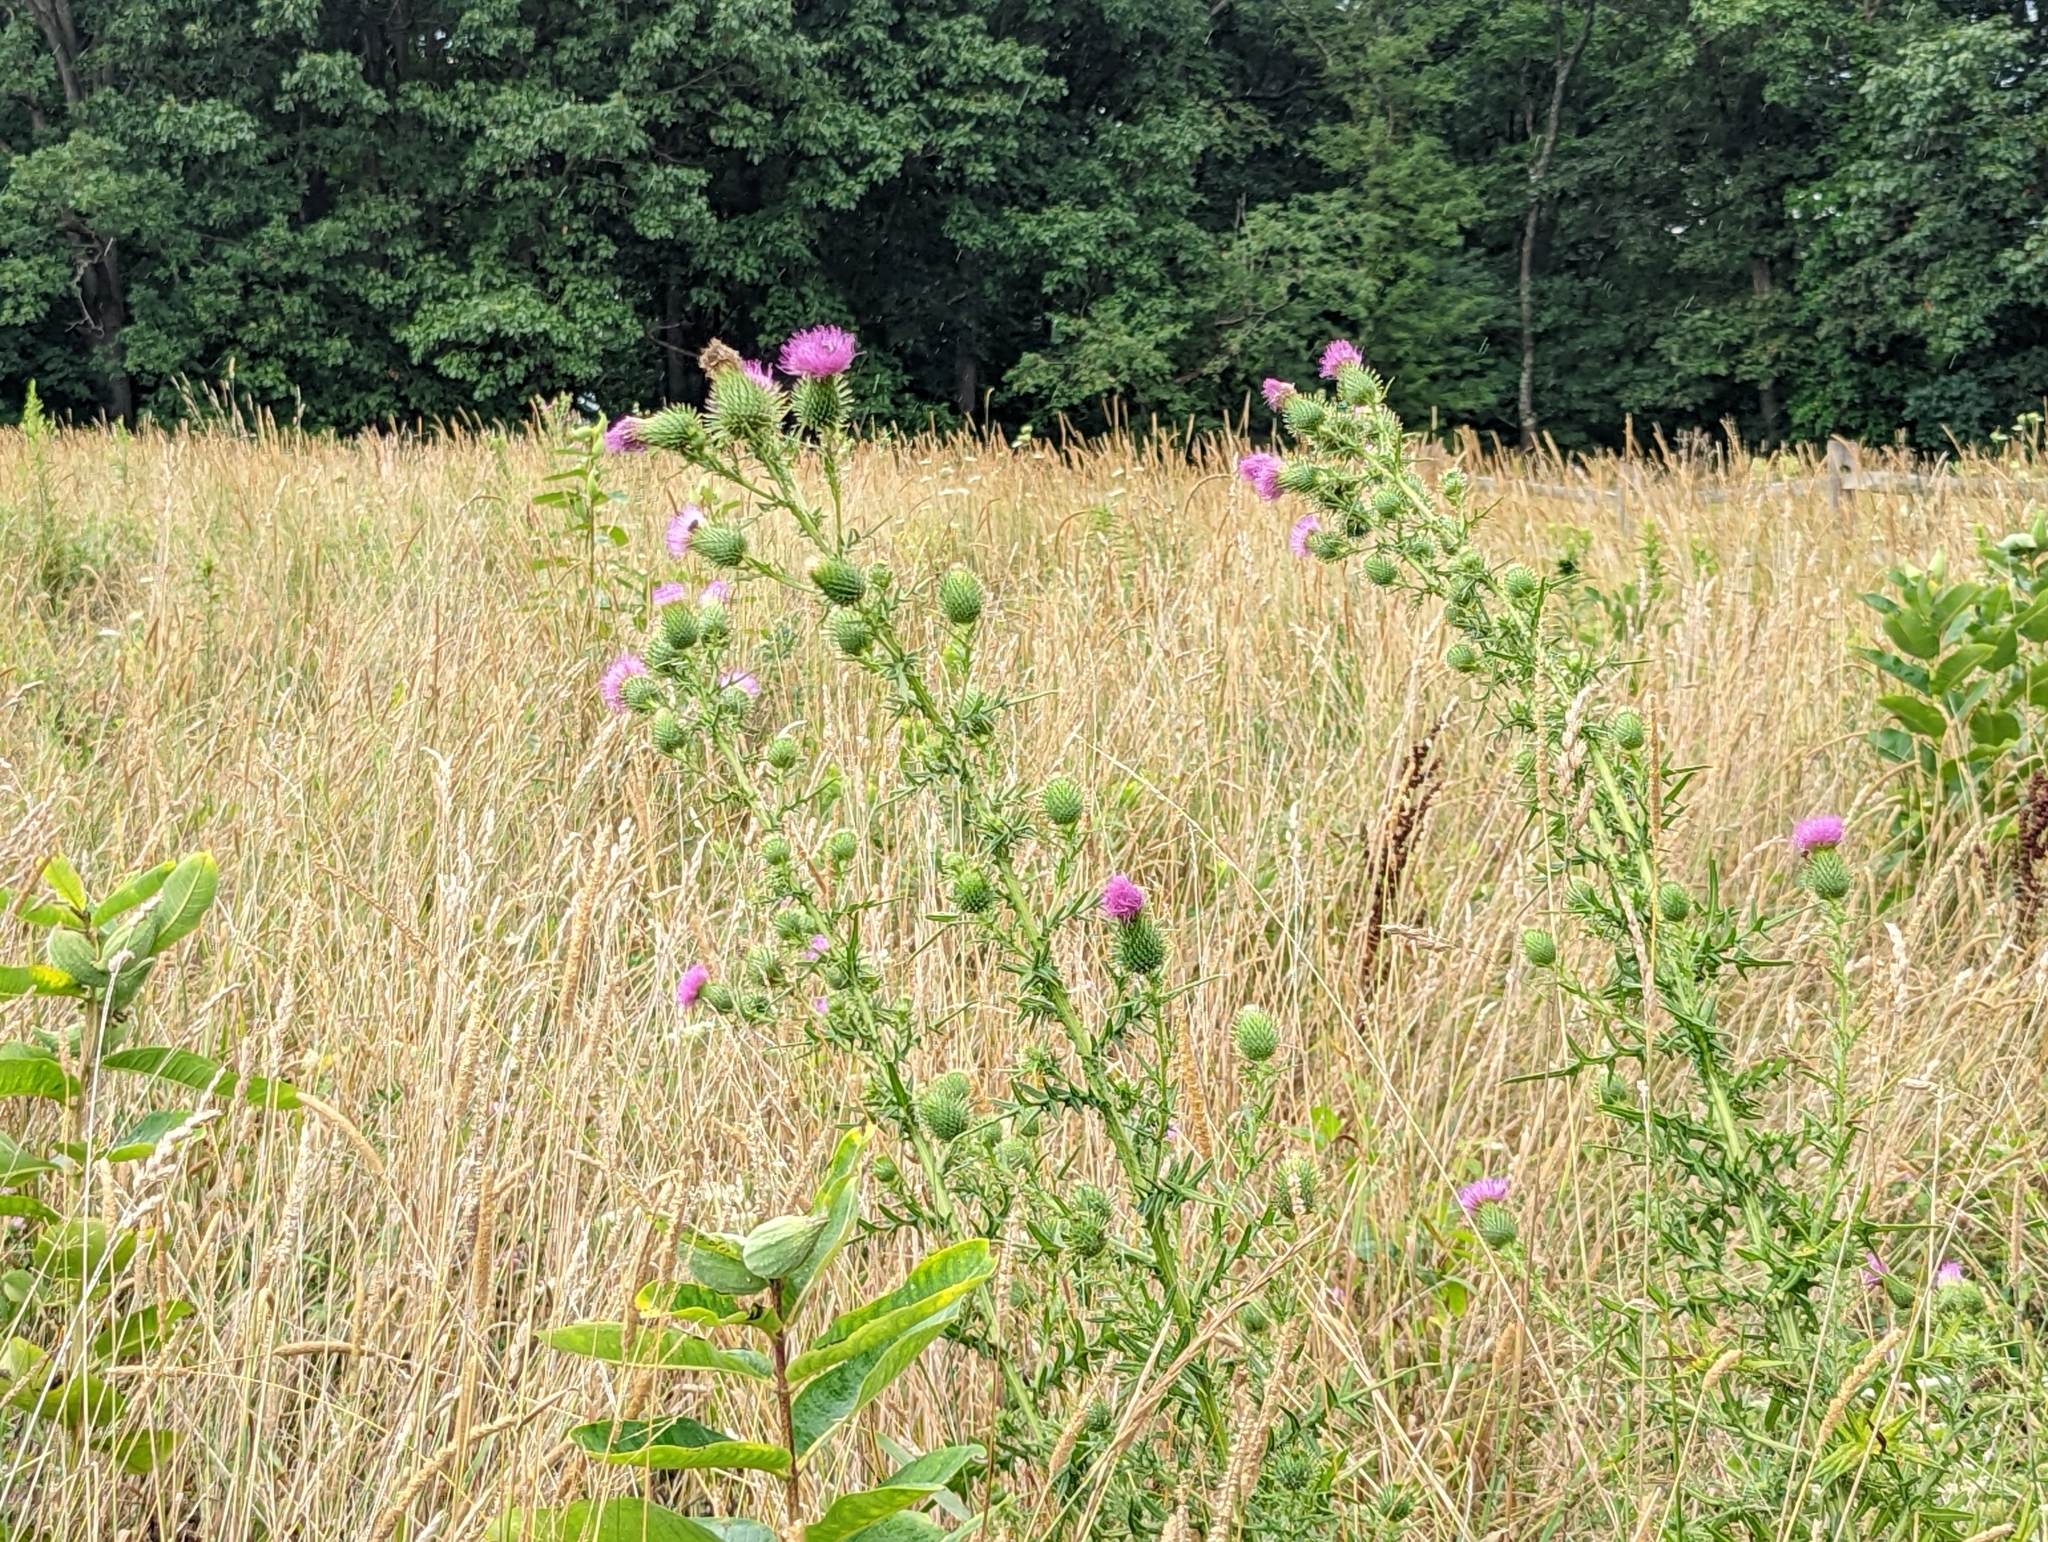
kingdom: Plantae
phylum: Tracheophyta
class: Magnoliopsida
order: Asterales
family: Asteraceae
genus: Cirsium
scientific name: Cirsium vulgare
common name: Bull thistle
